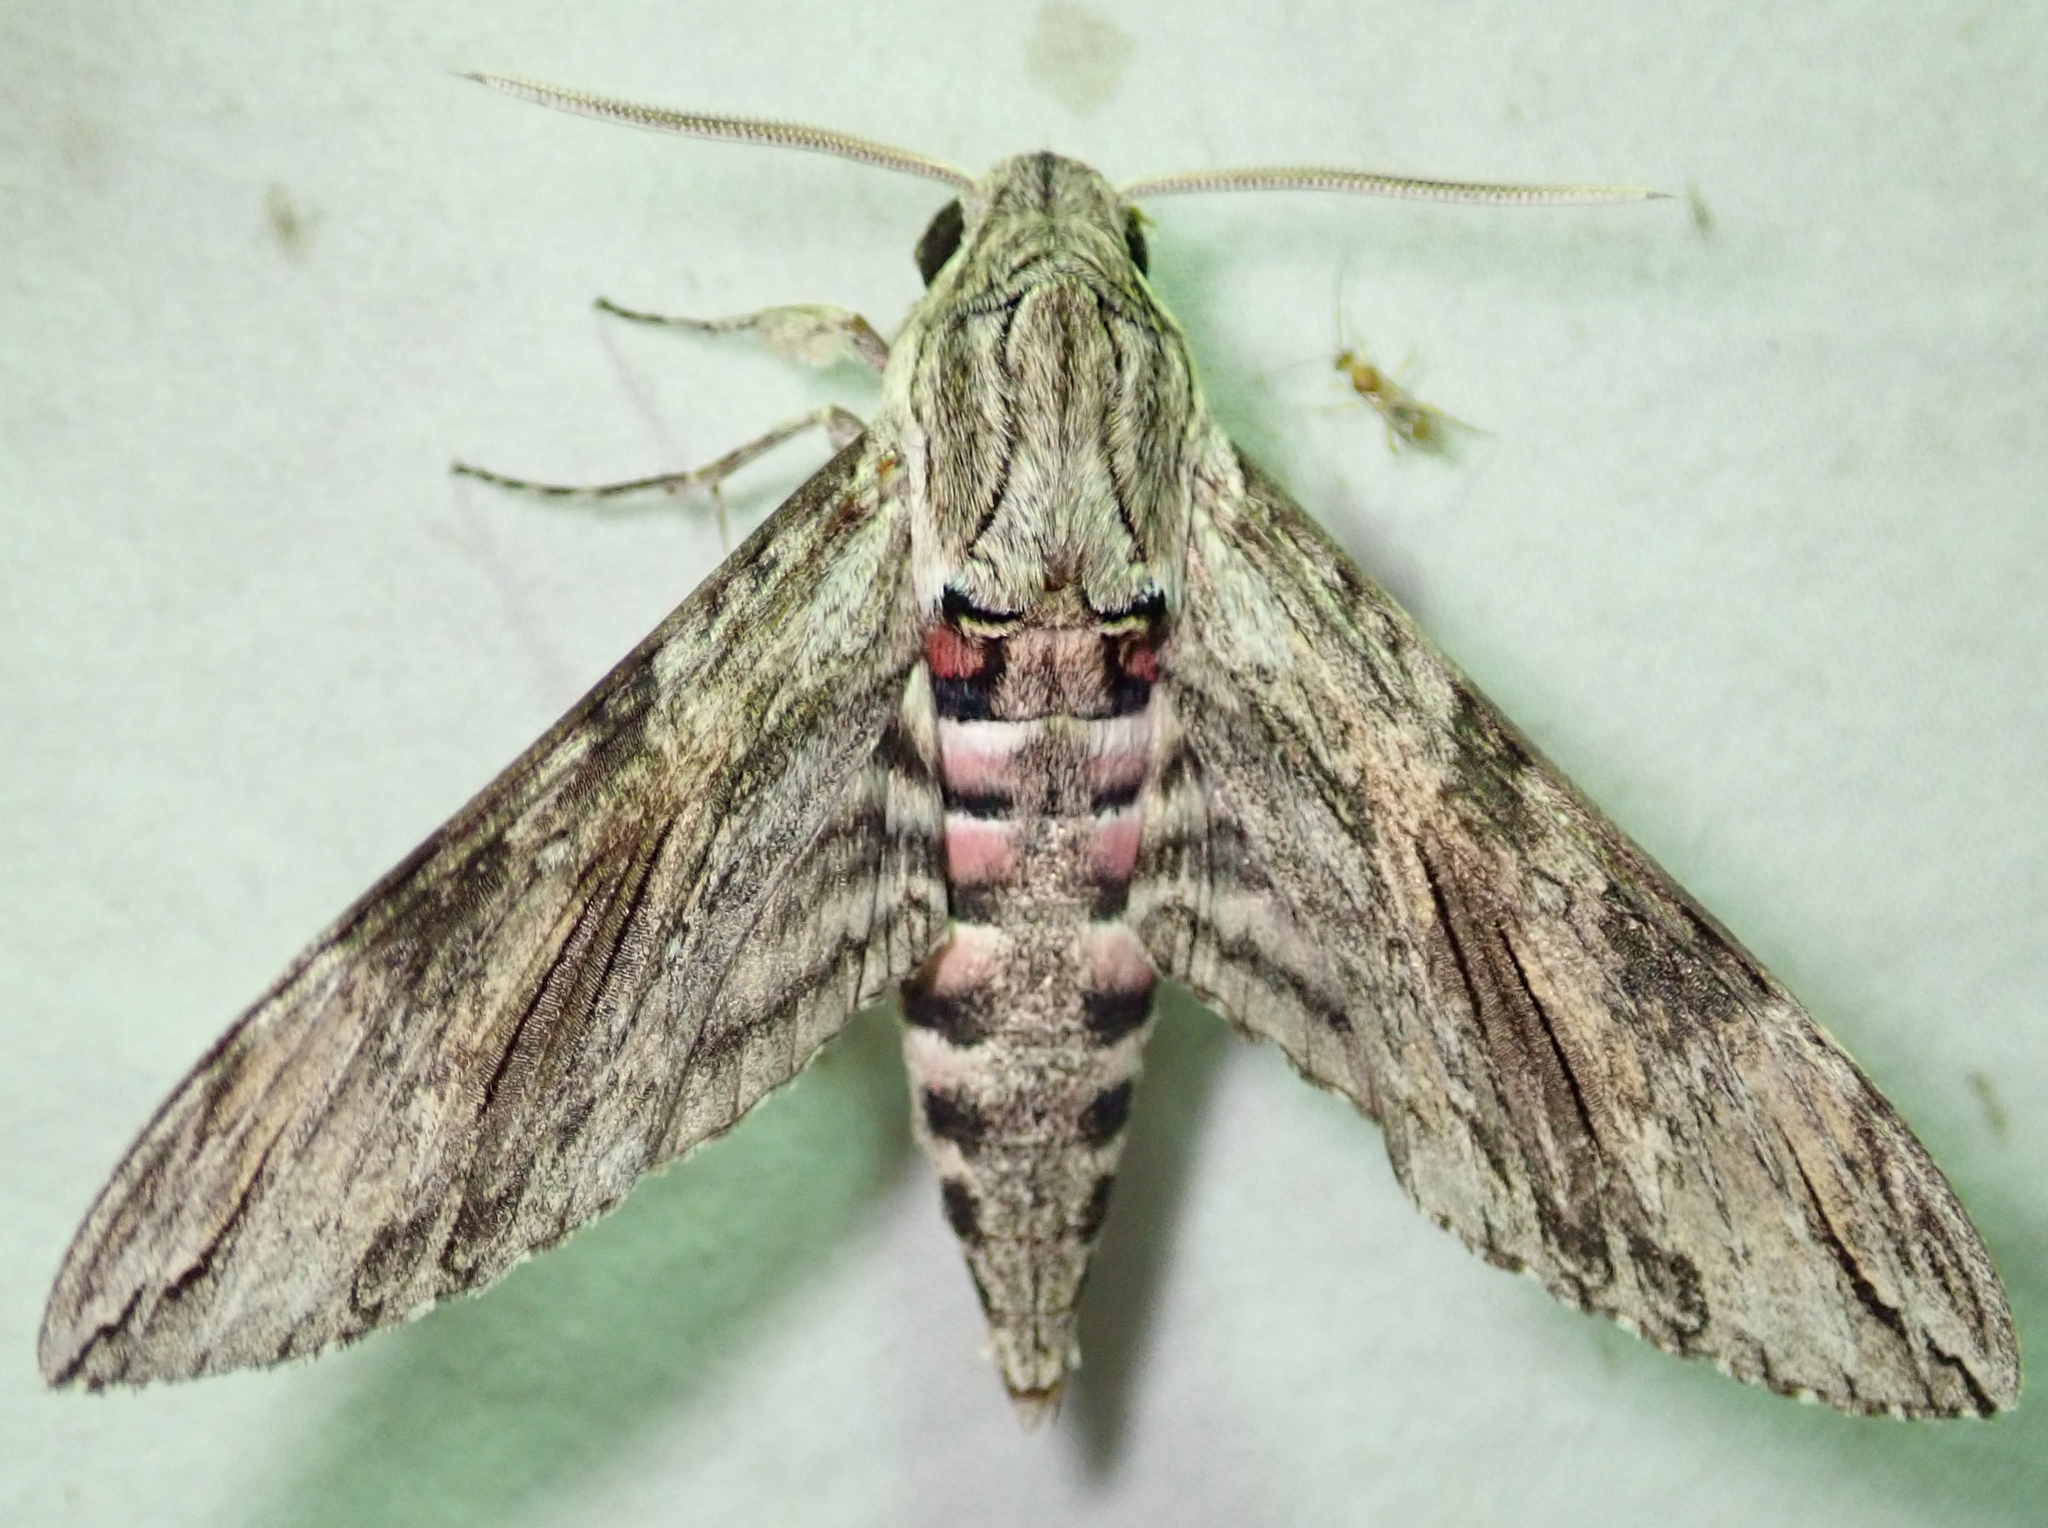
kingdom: Animalia
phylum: Arthropoda
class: Insecta
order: Lepidoptera
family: Sphingidae
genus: Agrius
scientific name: Agrius convolvuli
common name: Convolvulus hawkmoth
